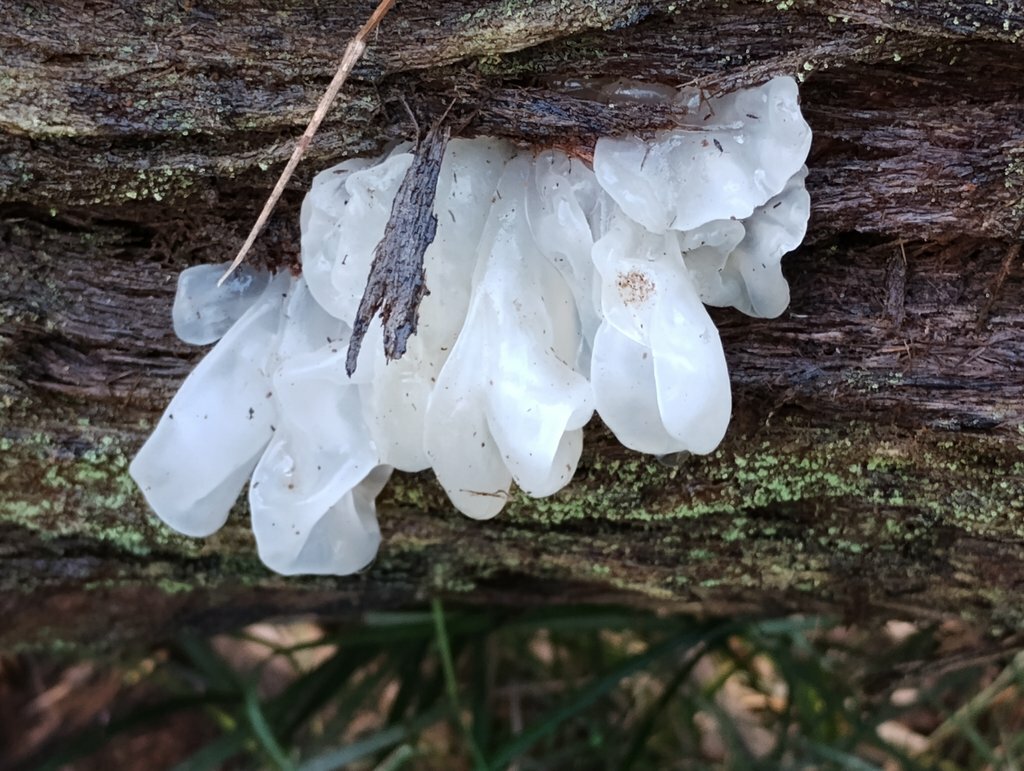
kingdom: Fungi
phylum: Basidiomycota
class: Tremellomycetes
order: Tremellales
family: Tremellaceae
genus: Tremella
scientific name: Tremella fuciformis
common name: Snow fungus
